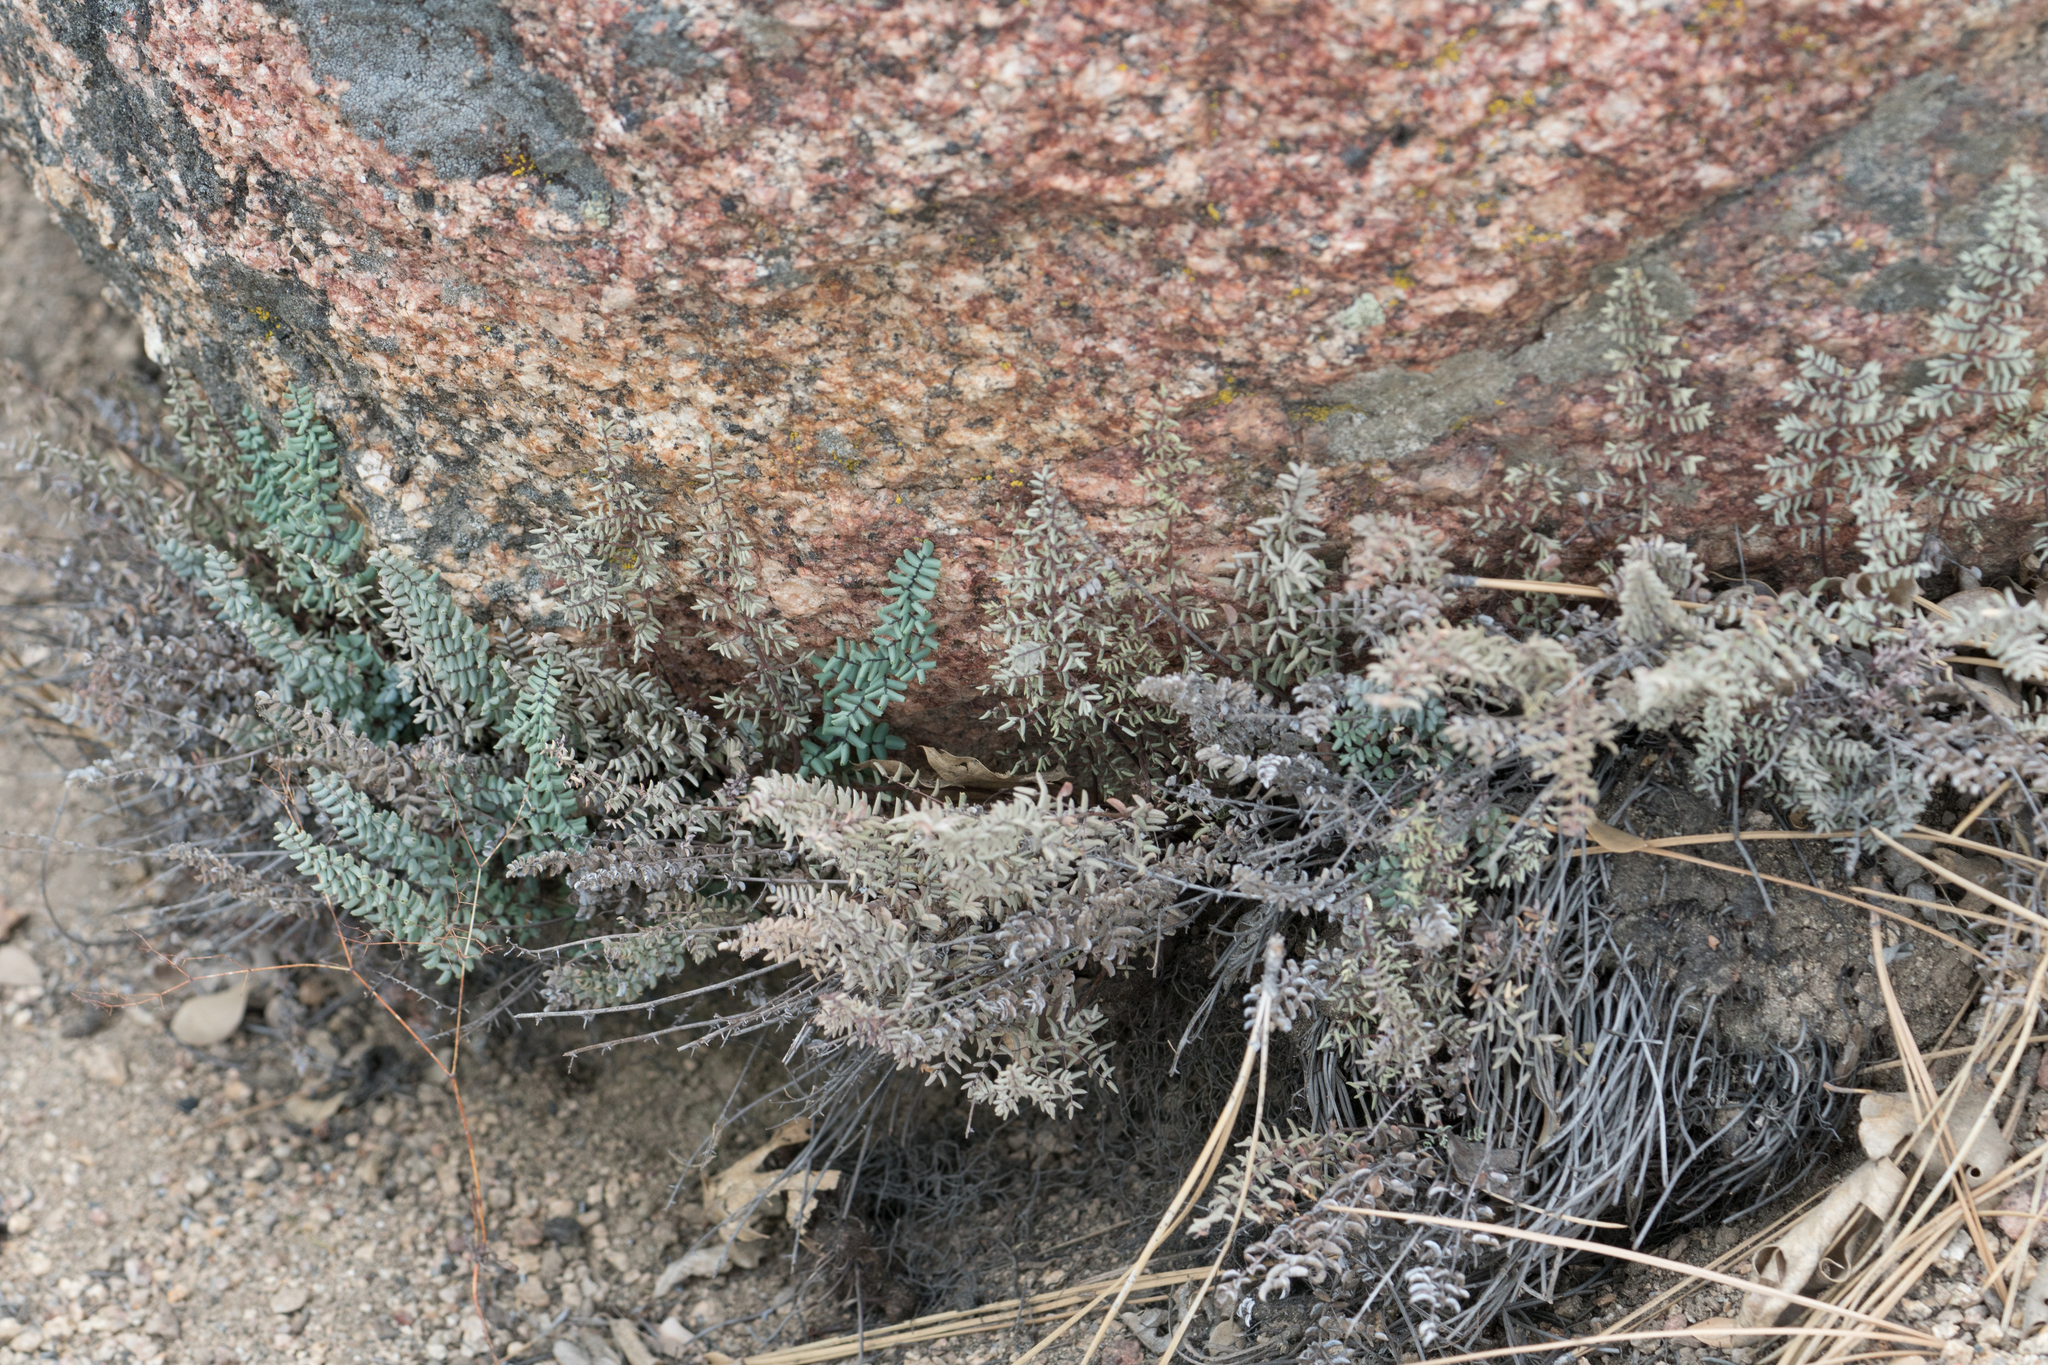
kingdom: Plantae
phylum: Tracheophyta
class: Polypodiopsida
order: Polypodiales
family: Pteridaceae
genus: Pellaea
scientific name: Pellaea mucronata
